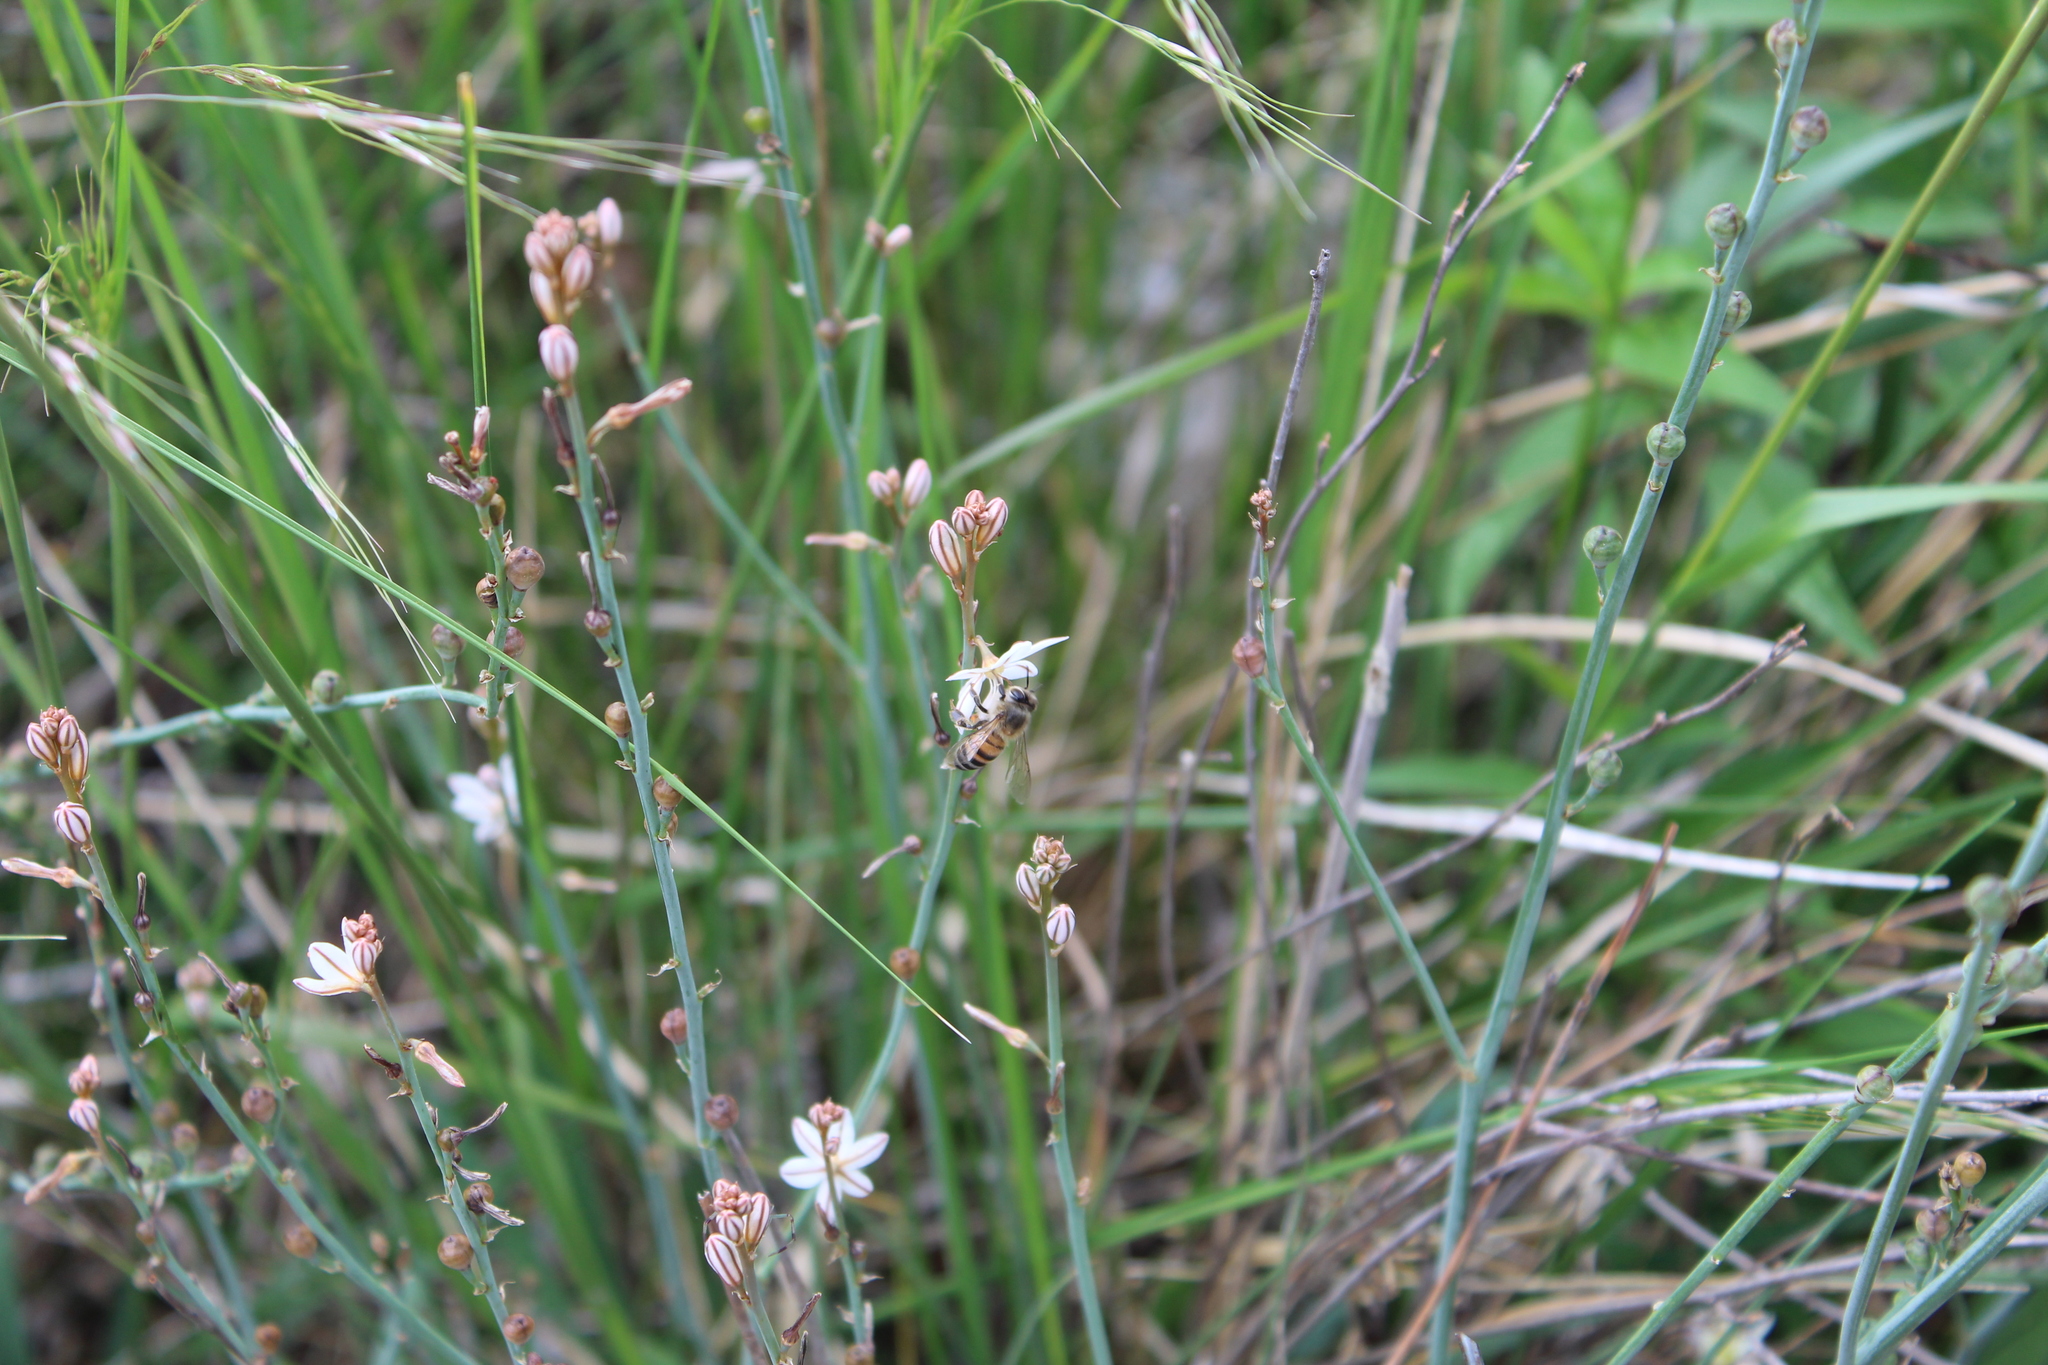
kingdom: Animalia
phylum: Arthropoda
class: Insecta
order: Hymenoptera
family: Apidae
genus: Apis
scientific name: Apis mellifera
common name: Honey bee
